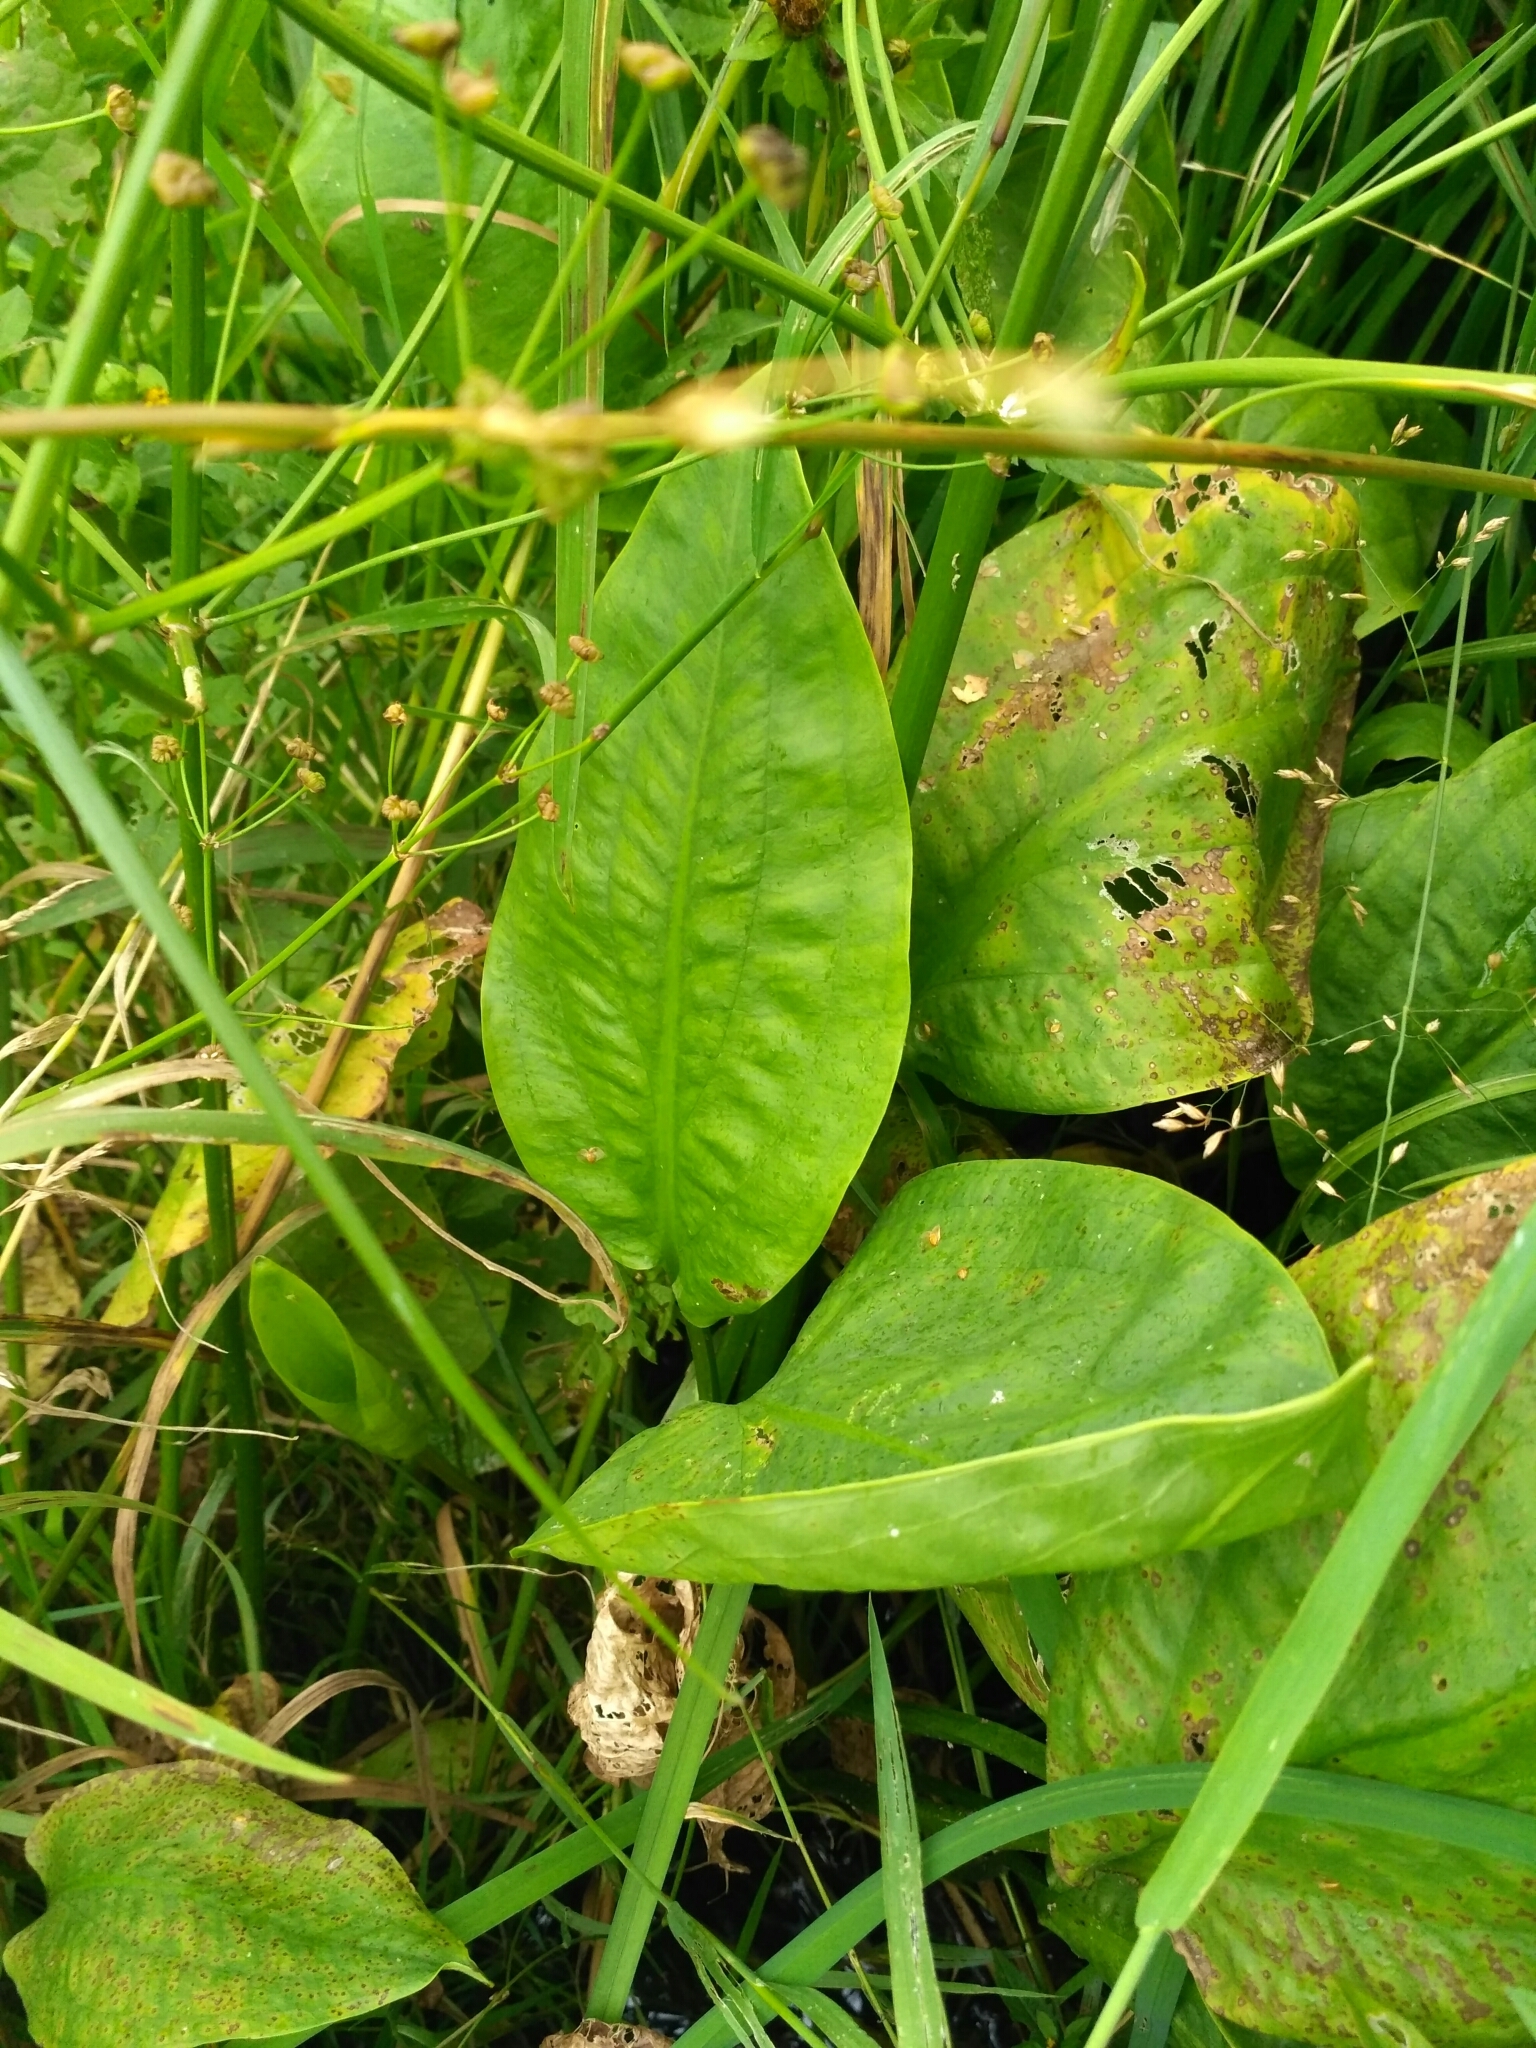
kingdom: Plantae
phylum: Tracheophyta
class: Liliopsida
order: Alismatales
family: Alismataceae
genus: Alisma
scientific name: Alisma plantago-aquatica
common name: Water-plantain
